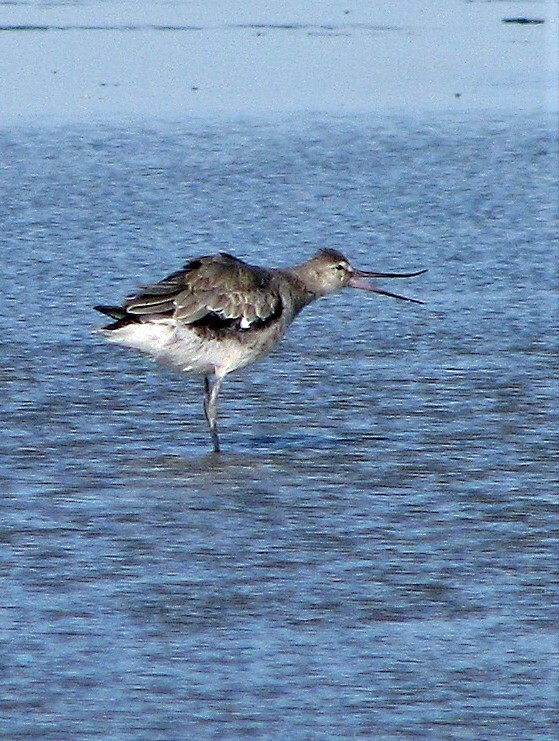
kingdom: Animalia
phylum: Chordata
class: Aves
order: Charadriiformes
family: Scolopacidae
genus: Limosa
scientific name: Limosa haemastica
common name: Hudsonian godwit
